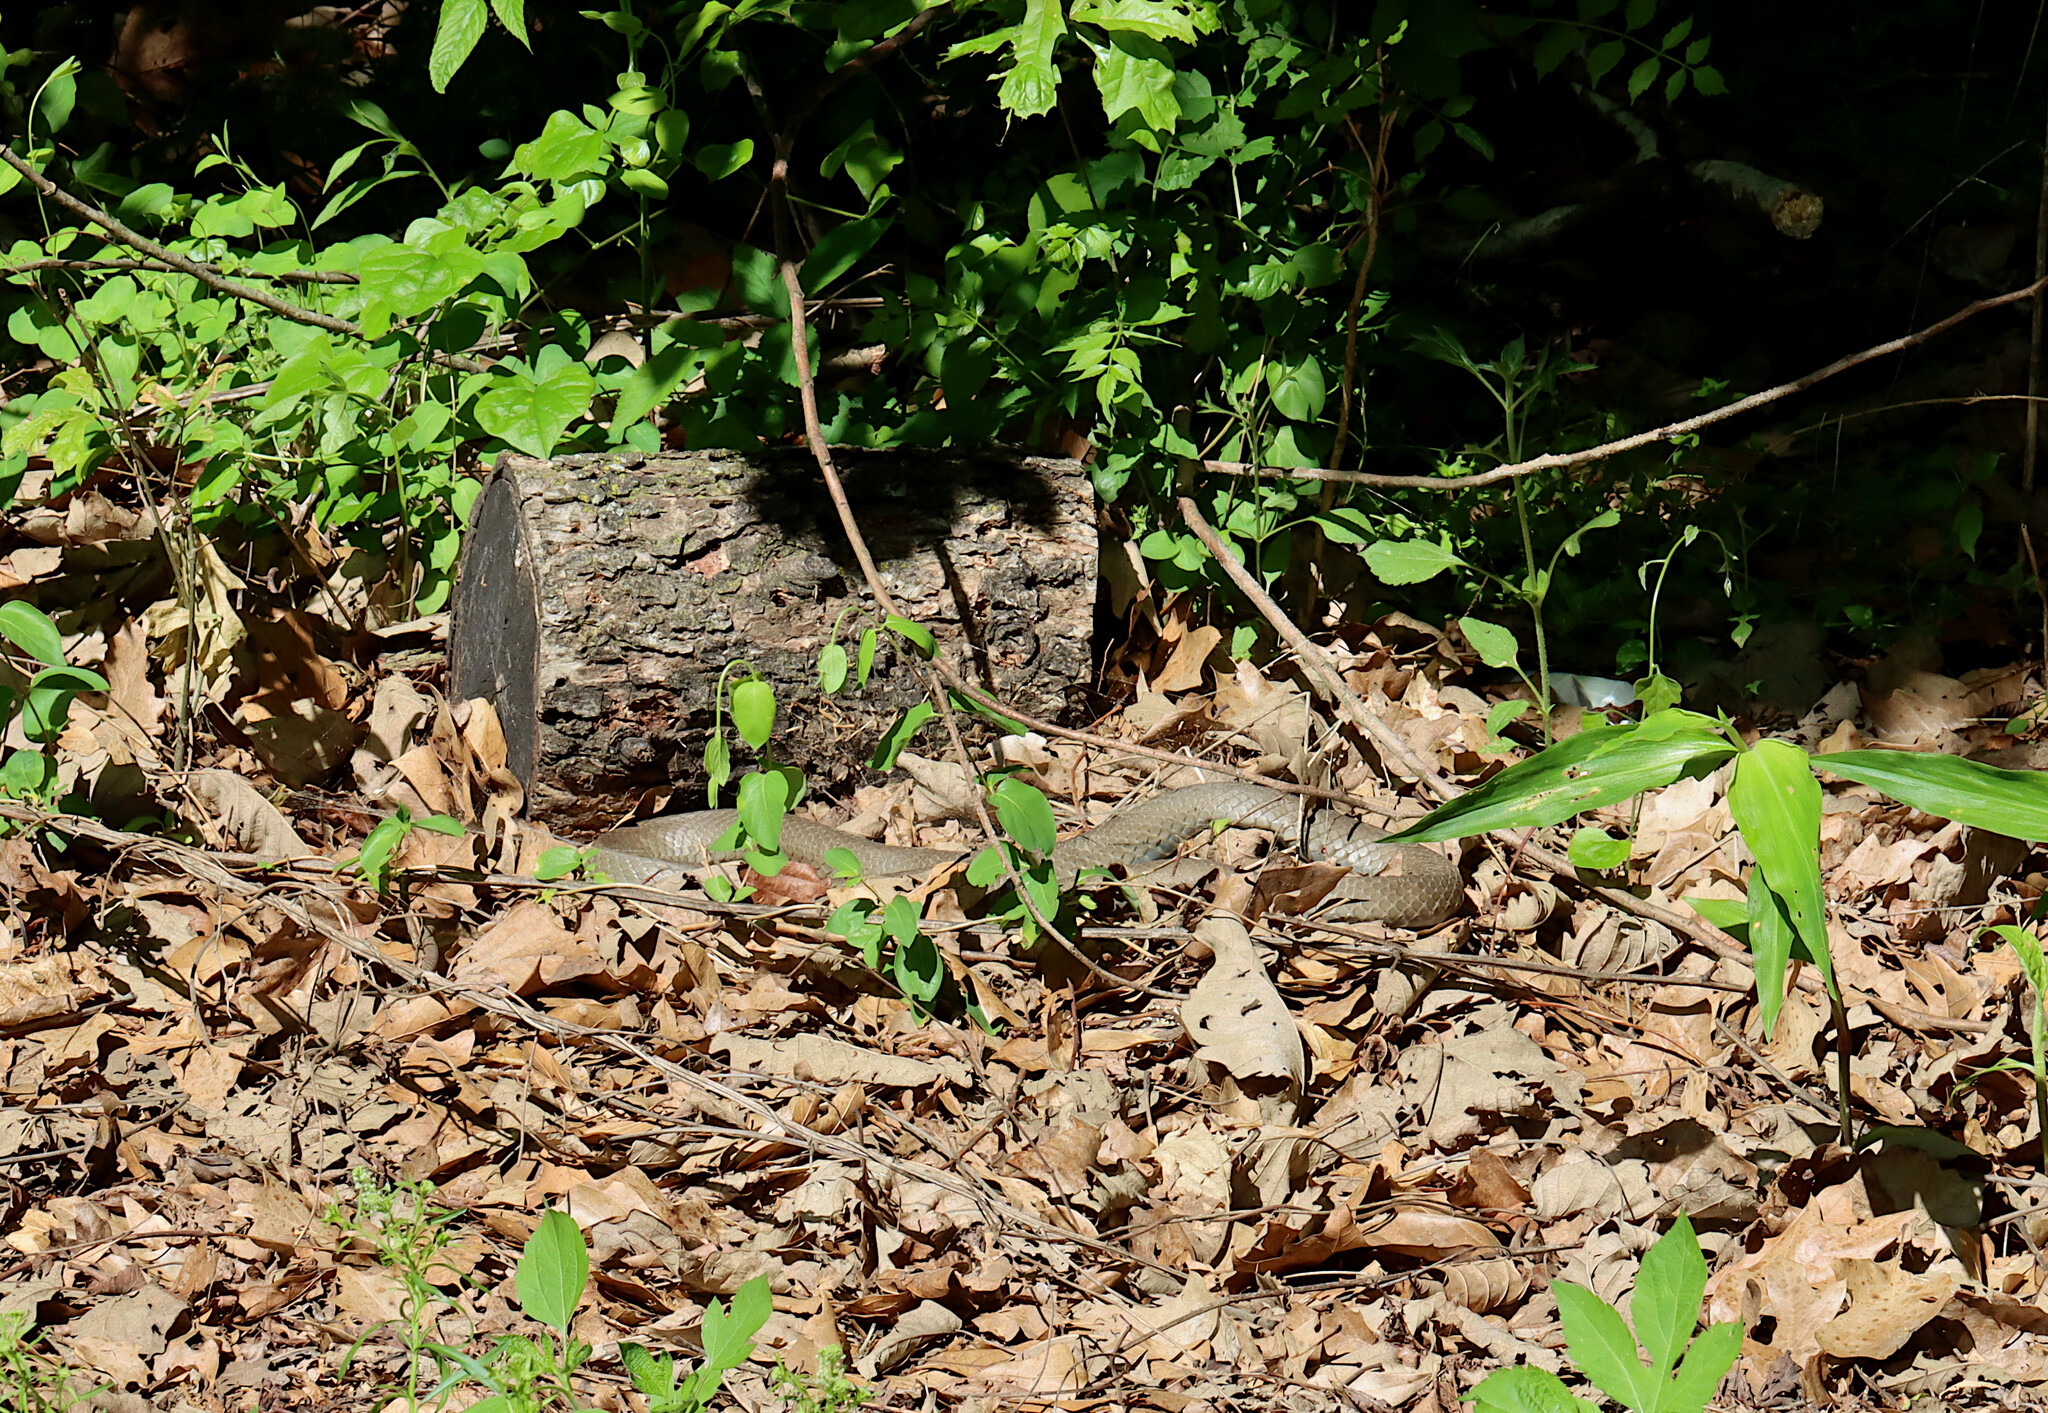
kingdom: Animalia
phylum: Chordata
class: Squamata
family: Colubridae
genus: Coluber
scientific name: Coluber constrictor
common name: Eastern racer
